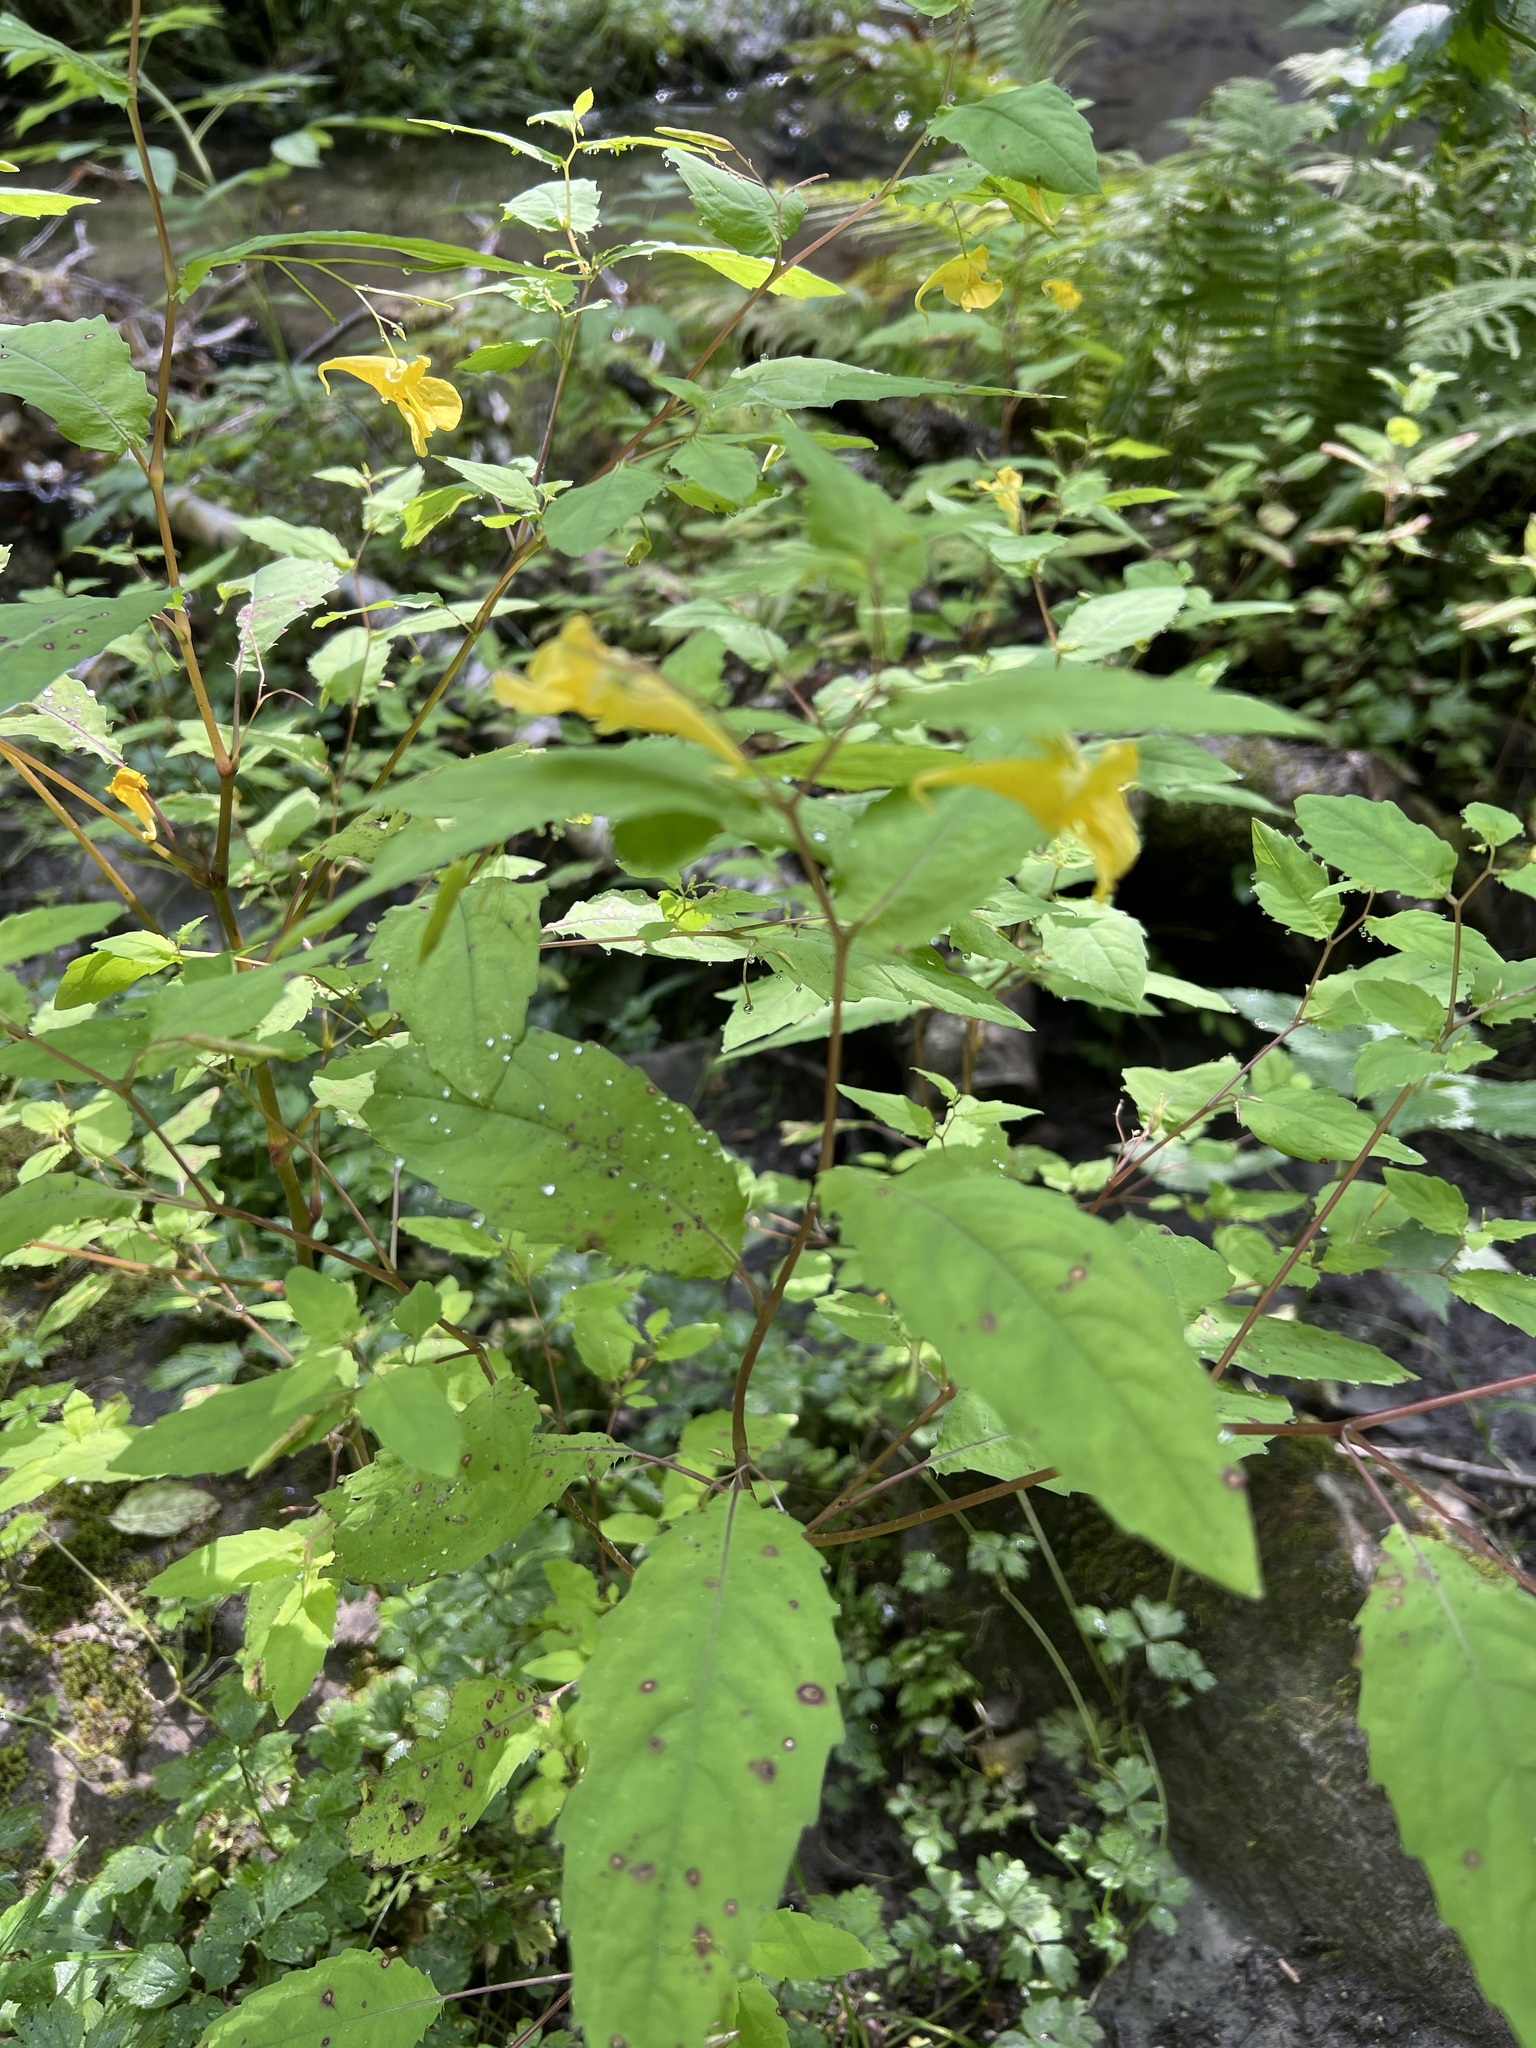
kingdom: Plantae
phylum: Tracheophyta
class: Magnoliopsida
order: Ericales
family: Balsaminaceae
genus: Impatiens
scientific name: Impatiens noli-tangere
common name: Touch-me-not balsam
